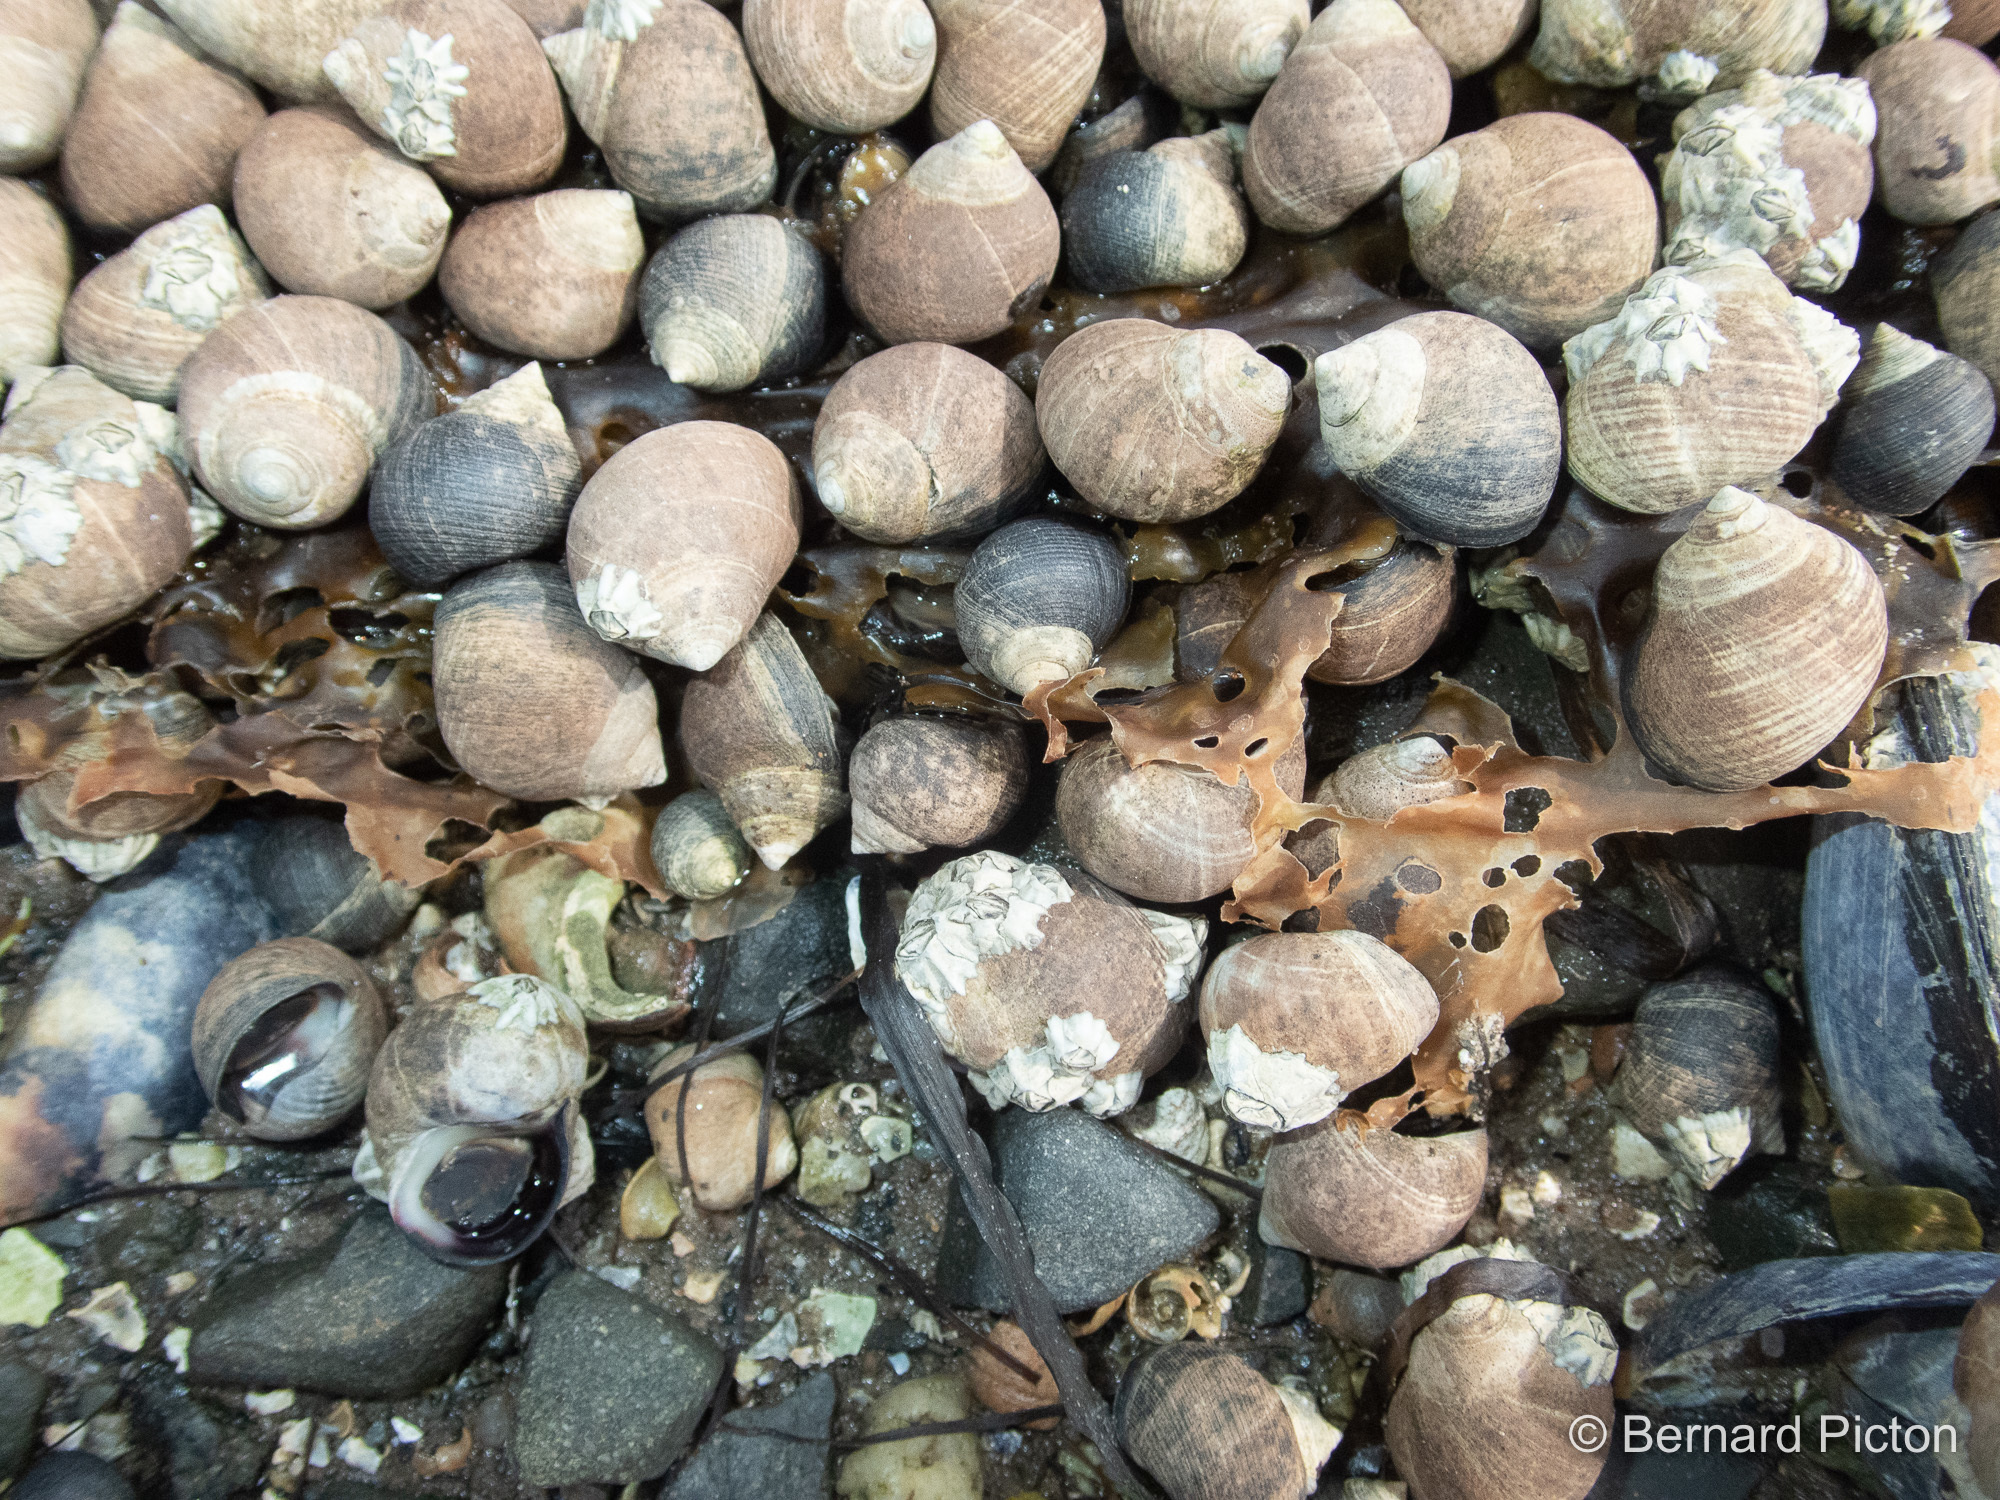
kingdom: Animalia
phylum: Mollusca
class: Gastropoda
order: Littorinimorpha
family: Littorinidae
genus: Littorina
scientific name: Littorina littorea
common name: Common periwinkle
